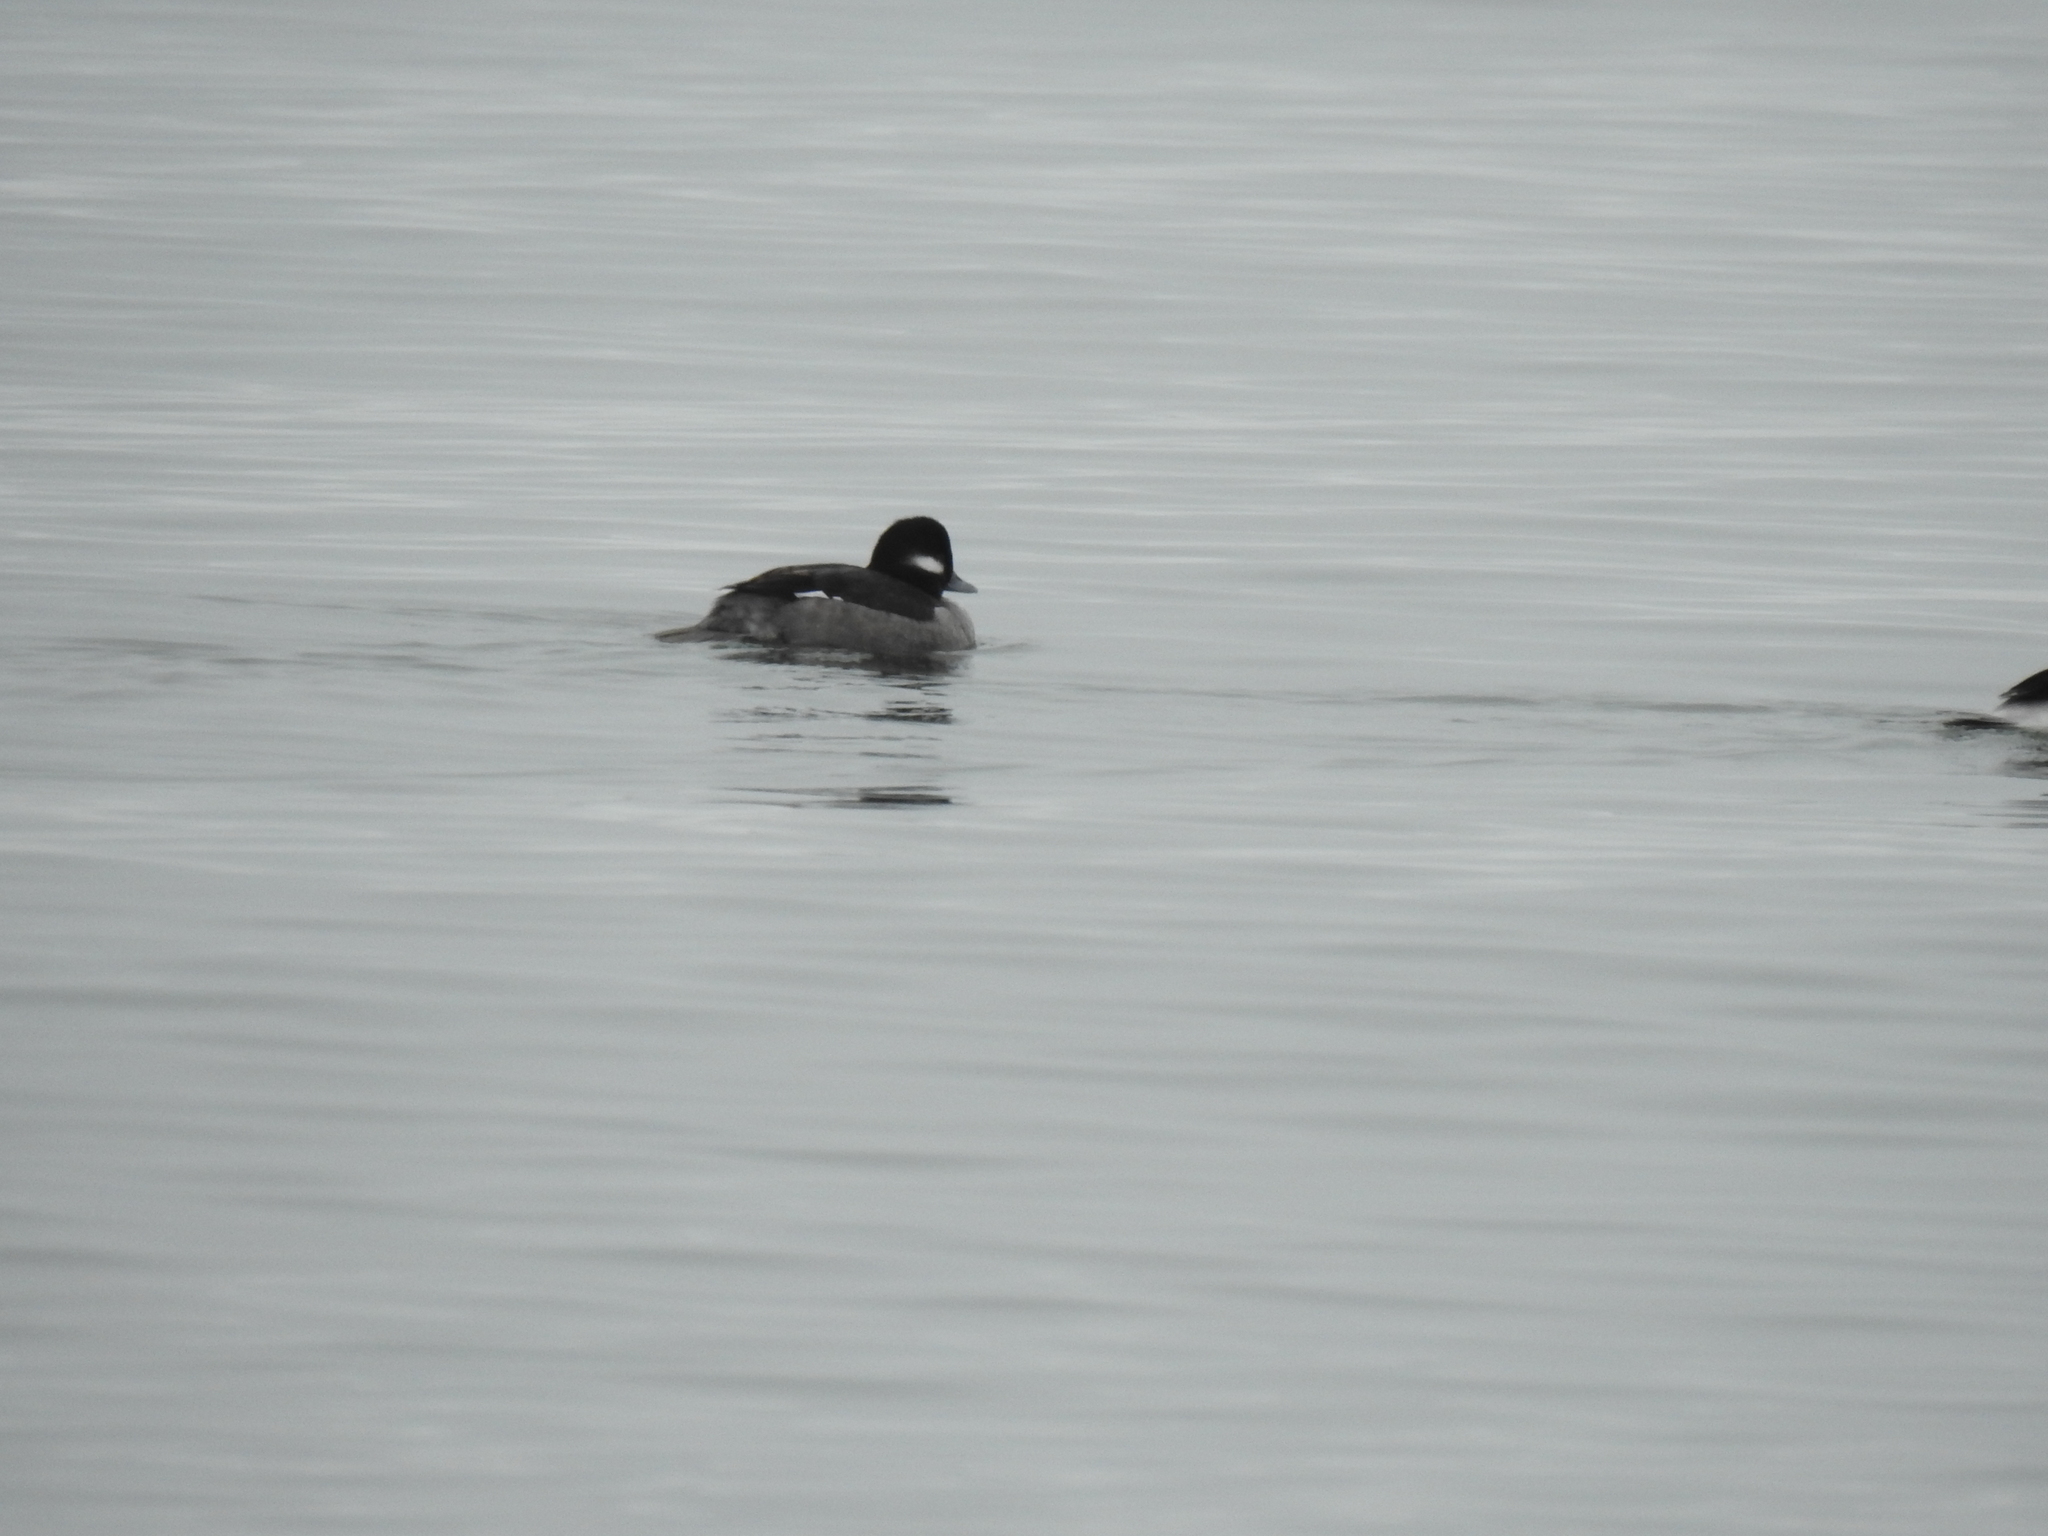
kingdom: Animalia
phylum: Chordata
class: Aves
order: Anseriformes
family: Anatidae
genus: Bucephala
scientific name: Bucephala albeola
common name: Bufflehead
